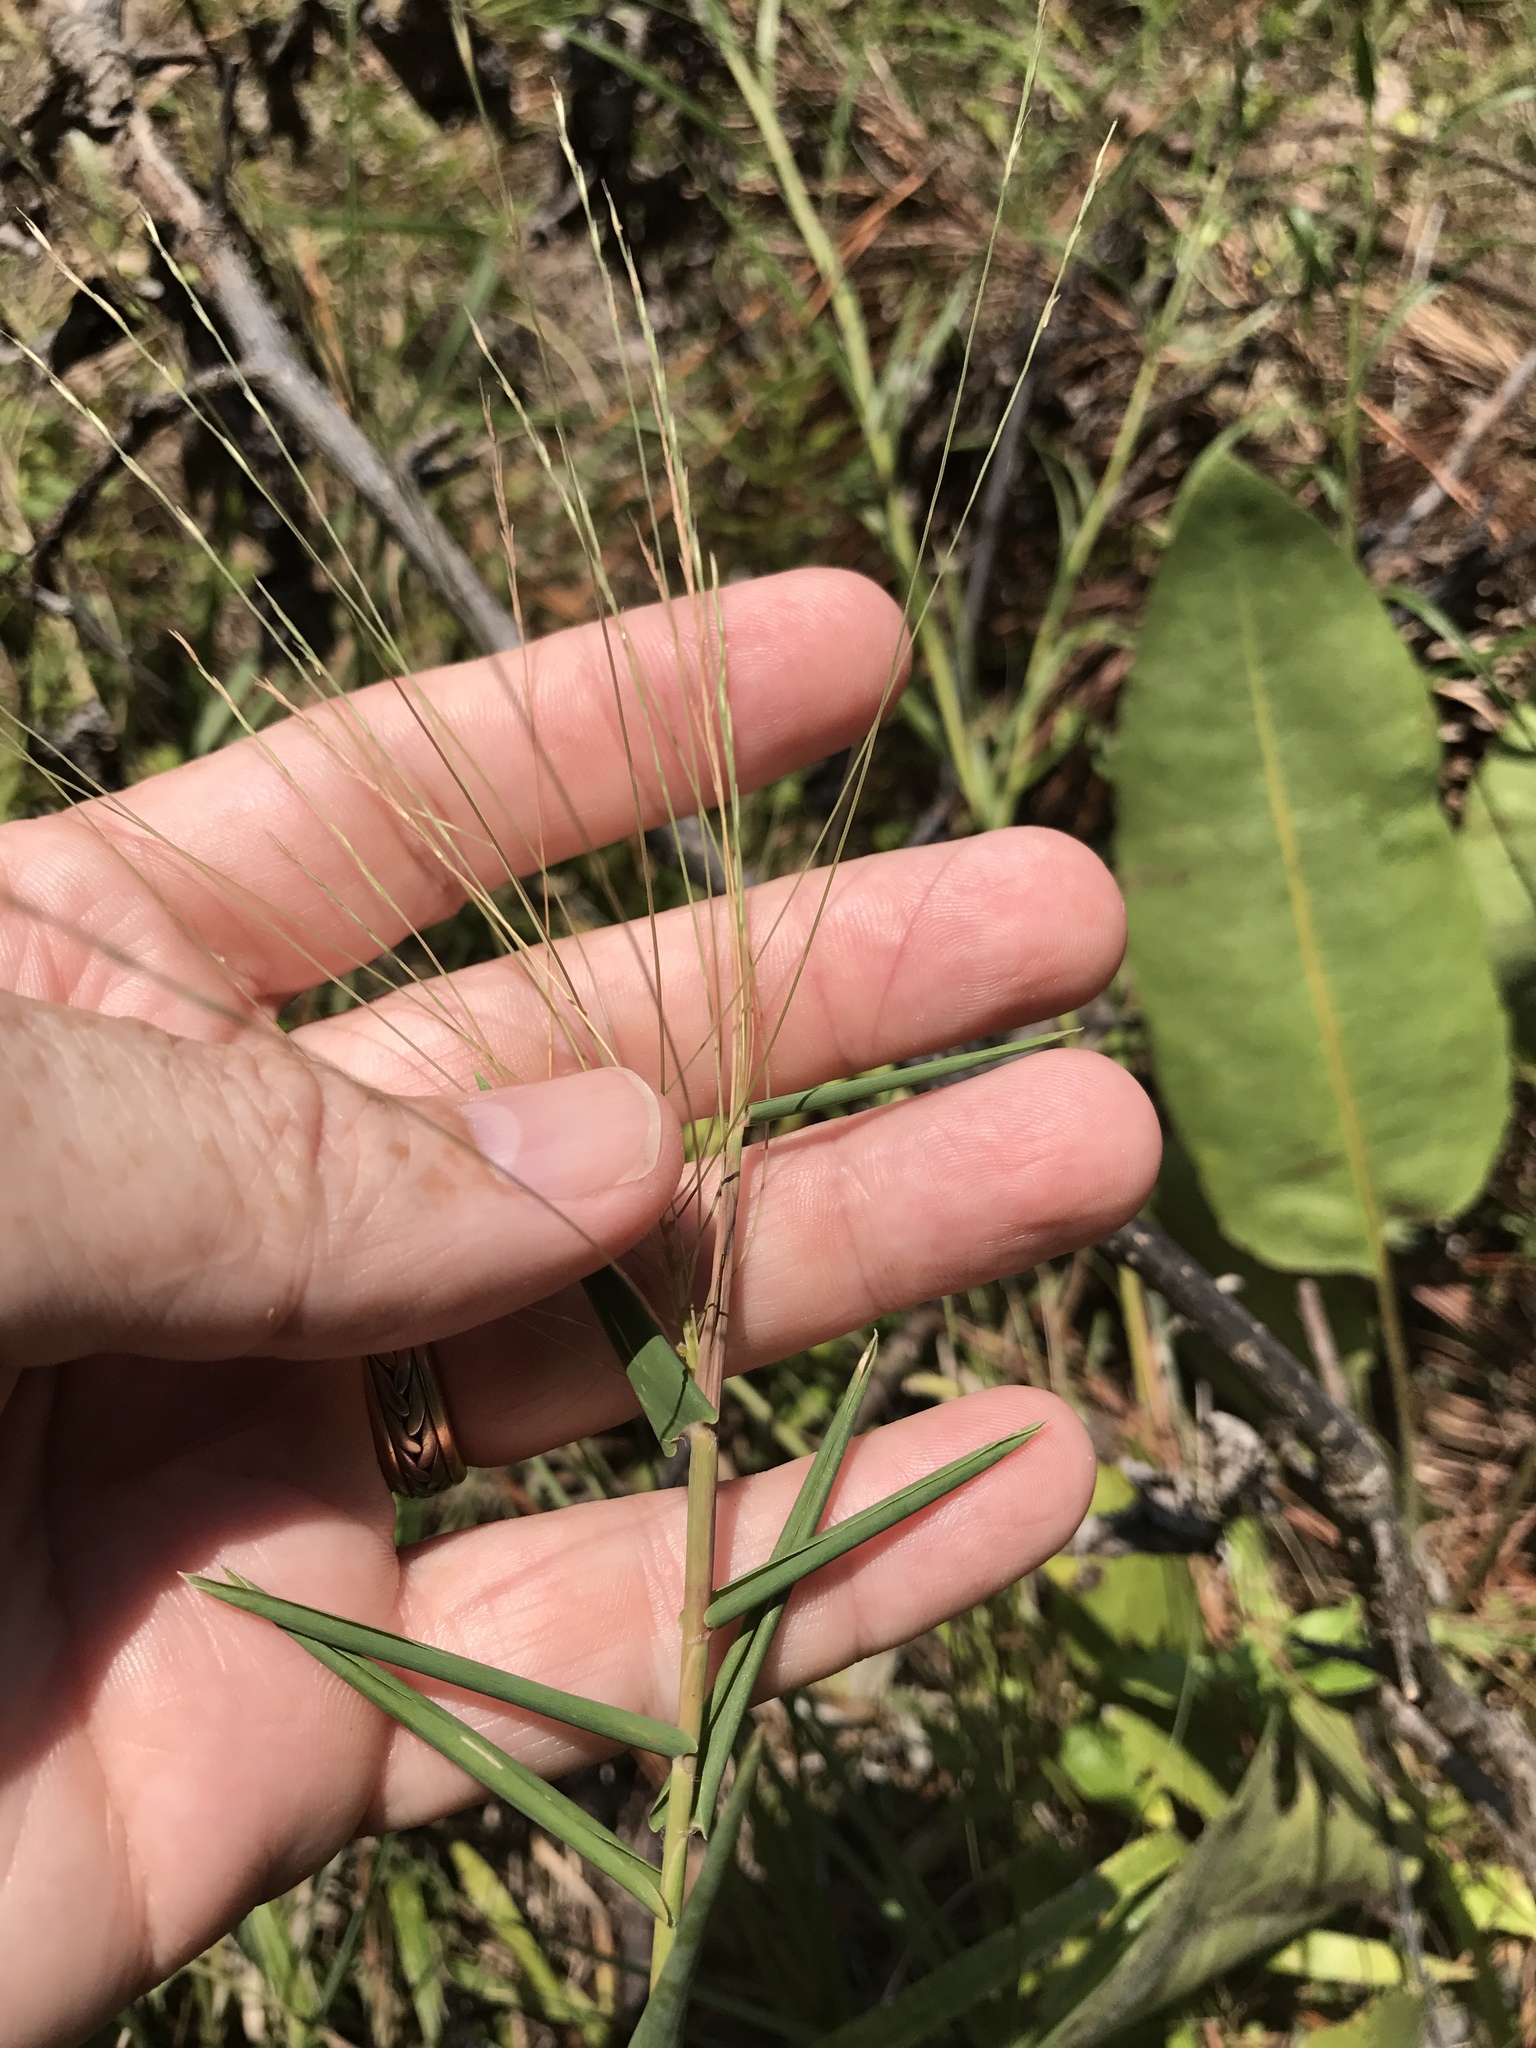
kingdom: Plantae
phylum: Tracheophyta
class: Liliopsida
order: Poales
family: Poaceae
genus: Gymnopogon
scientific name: Gymnopogon brevifolius
